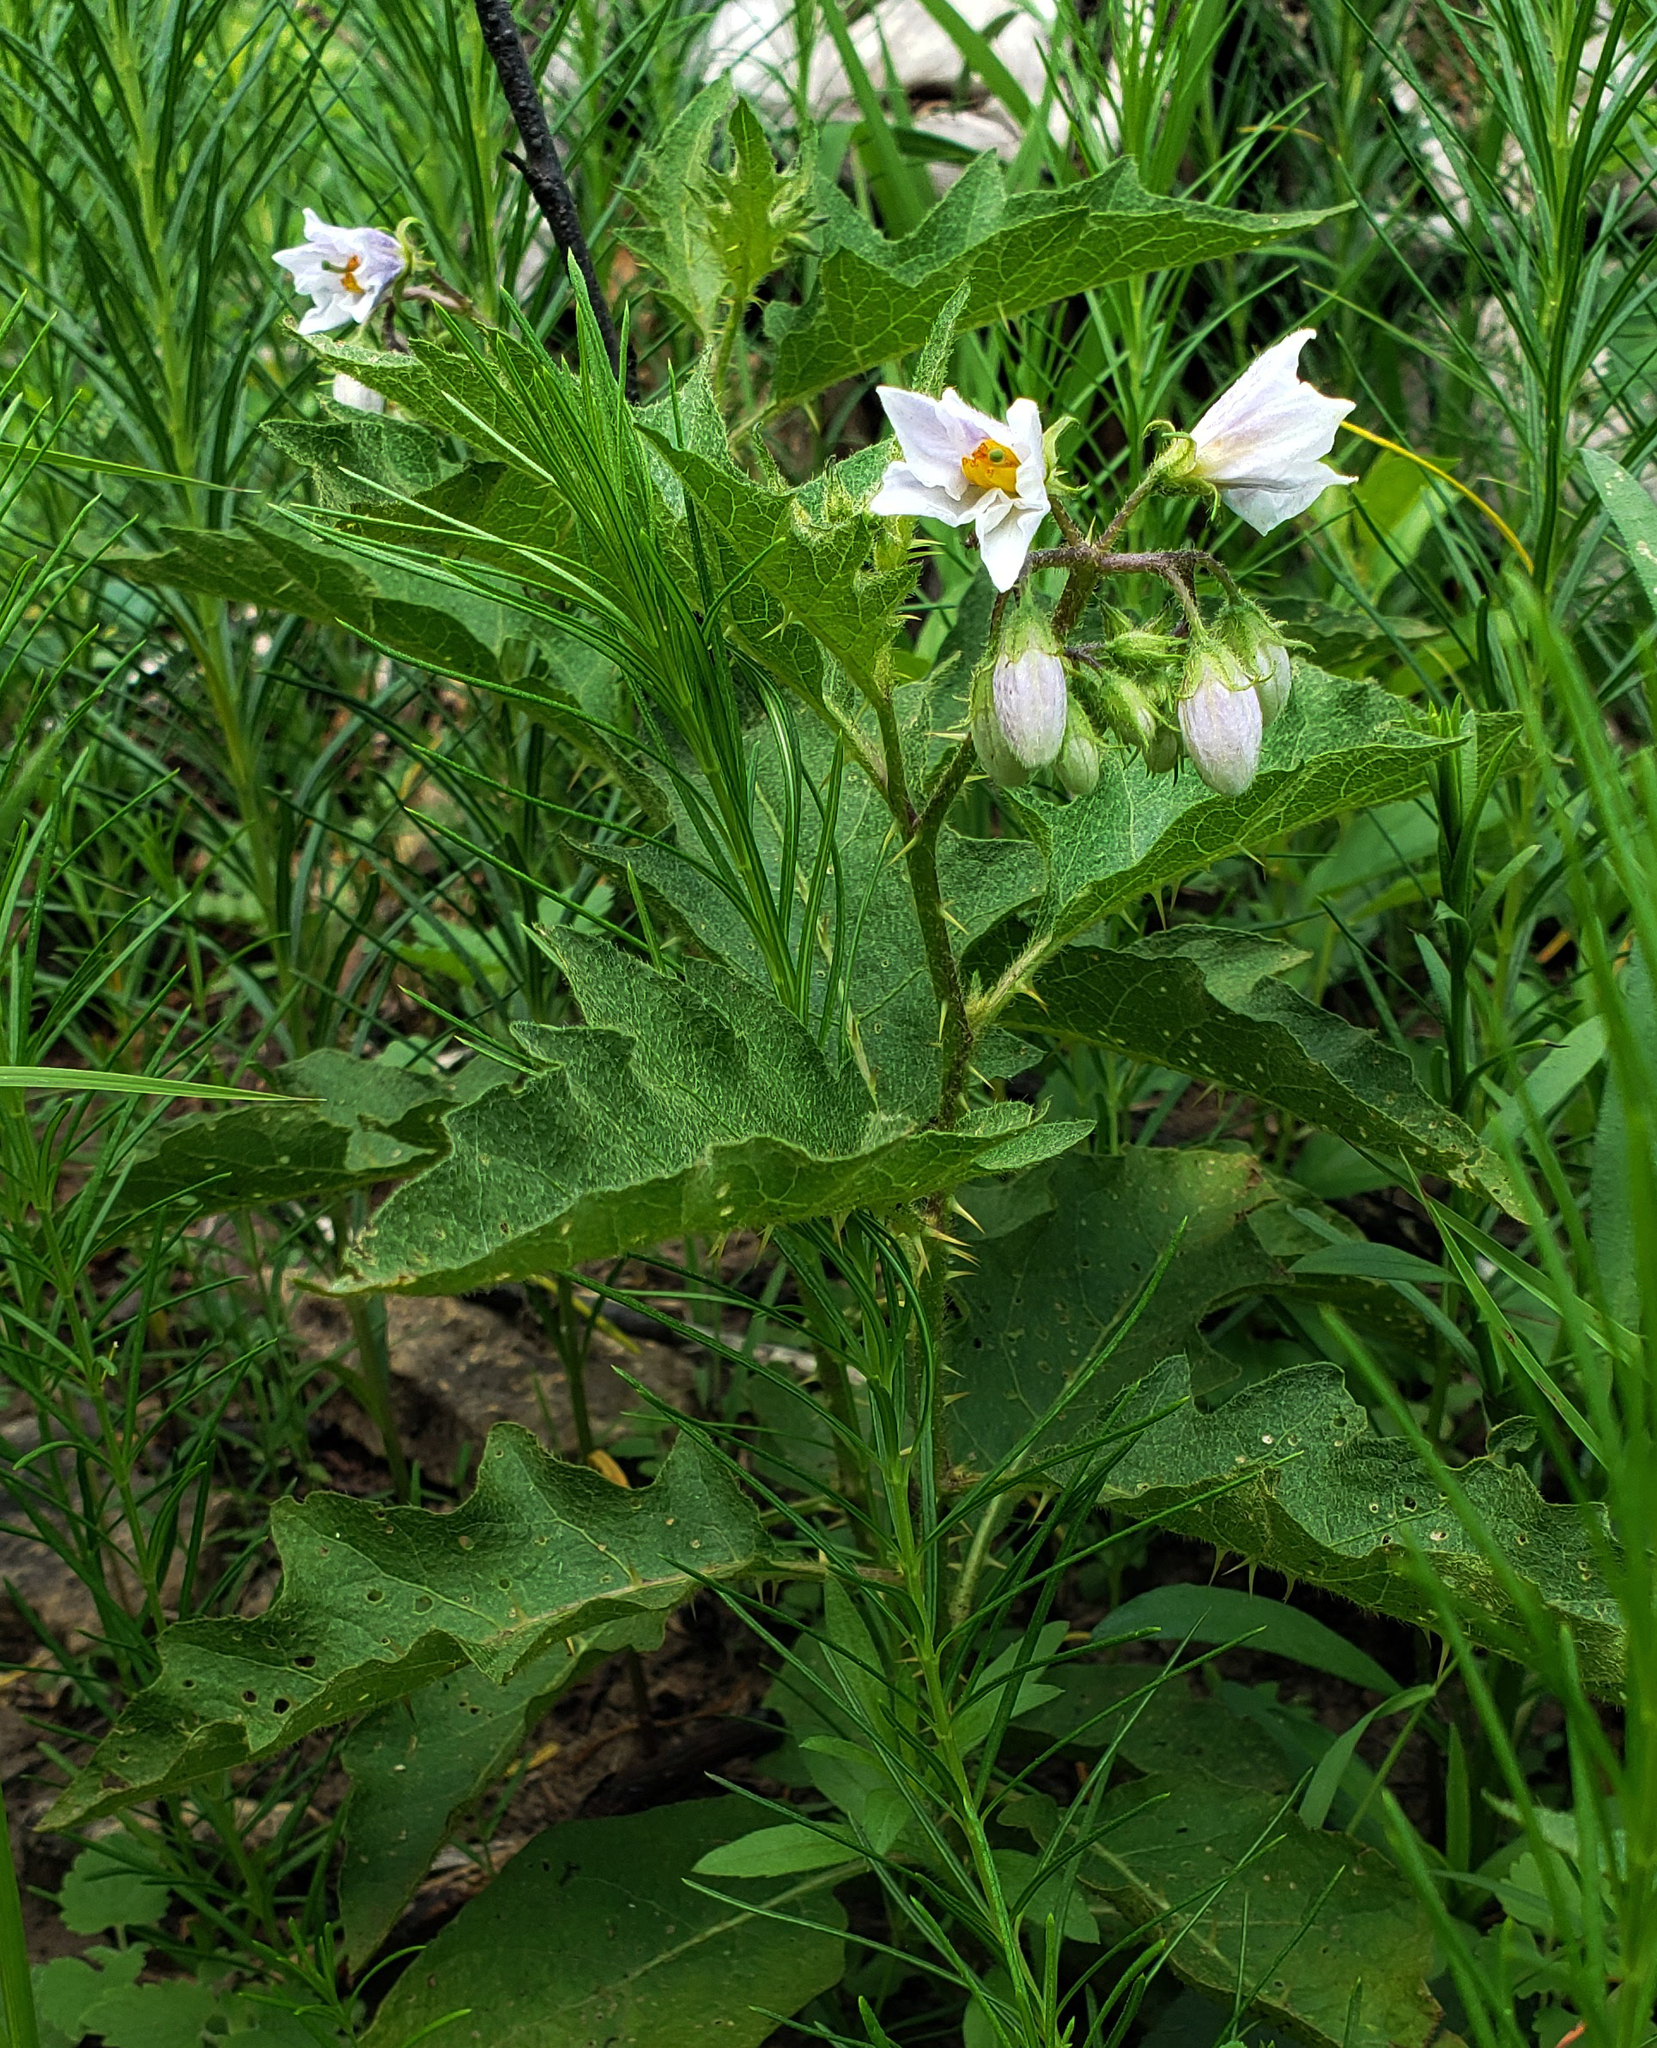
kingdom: Plantae
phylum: Tracheophyta
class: Magnoliopsida
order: Solanales
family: Solanaceae
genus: Solanum
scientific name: Solanum carolinense
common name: Horse-nettle
